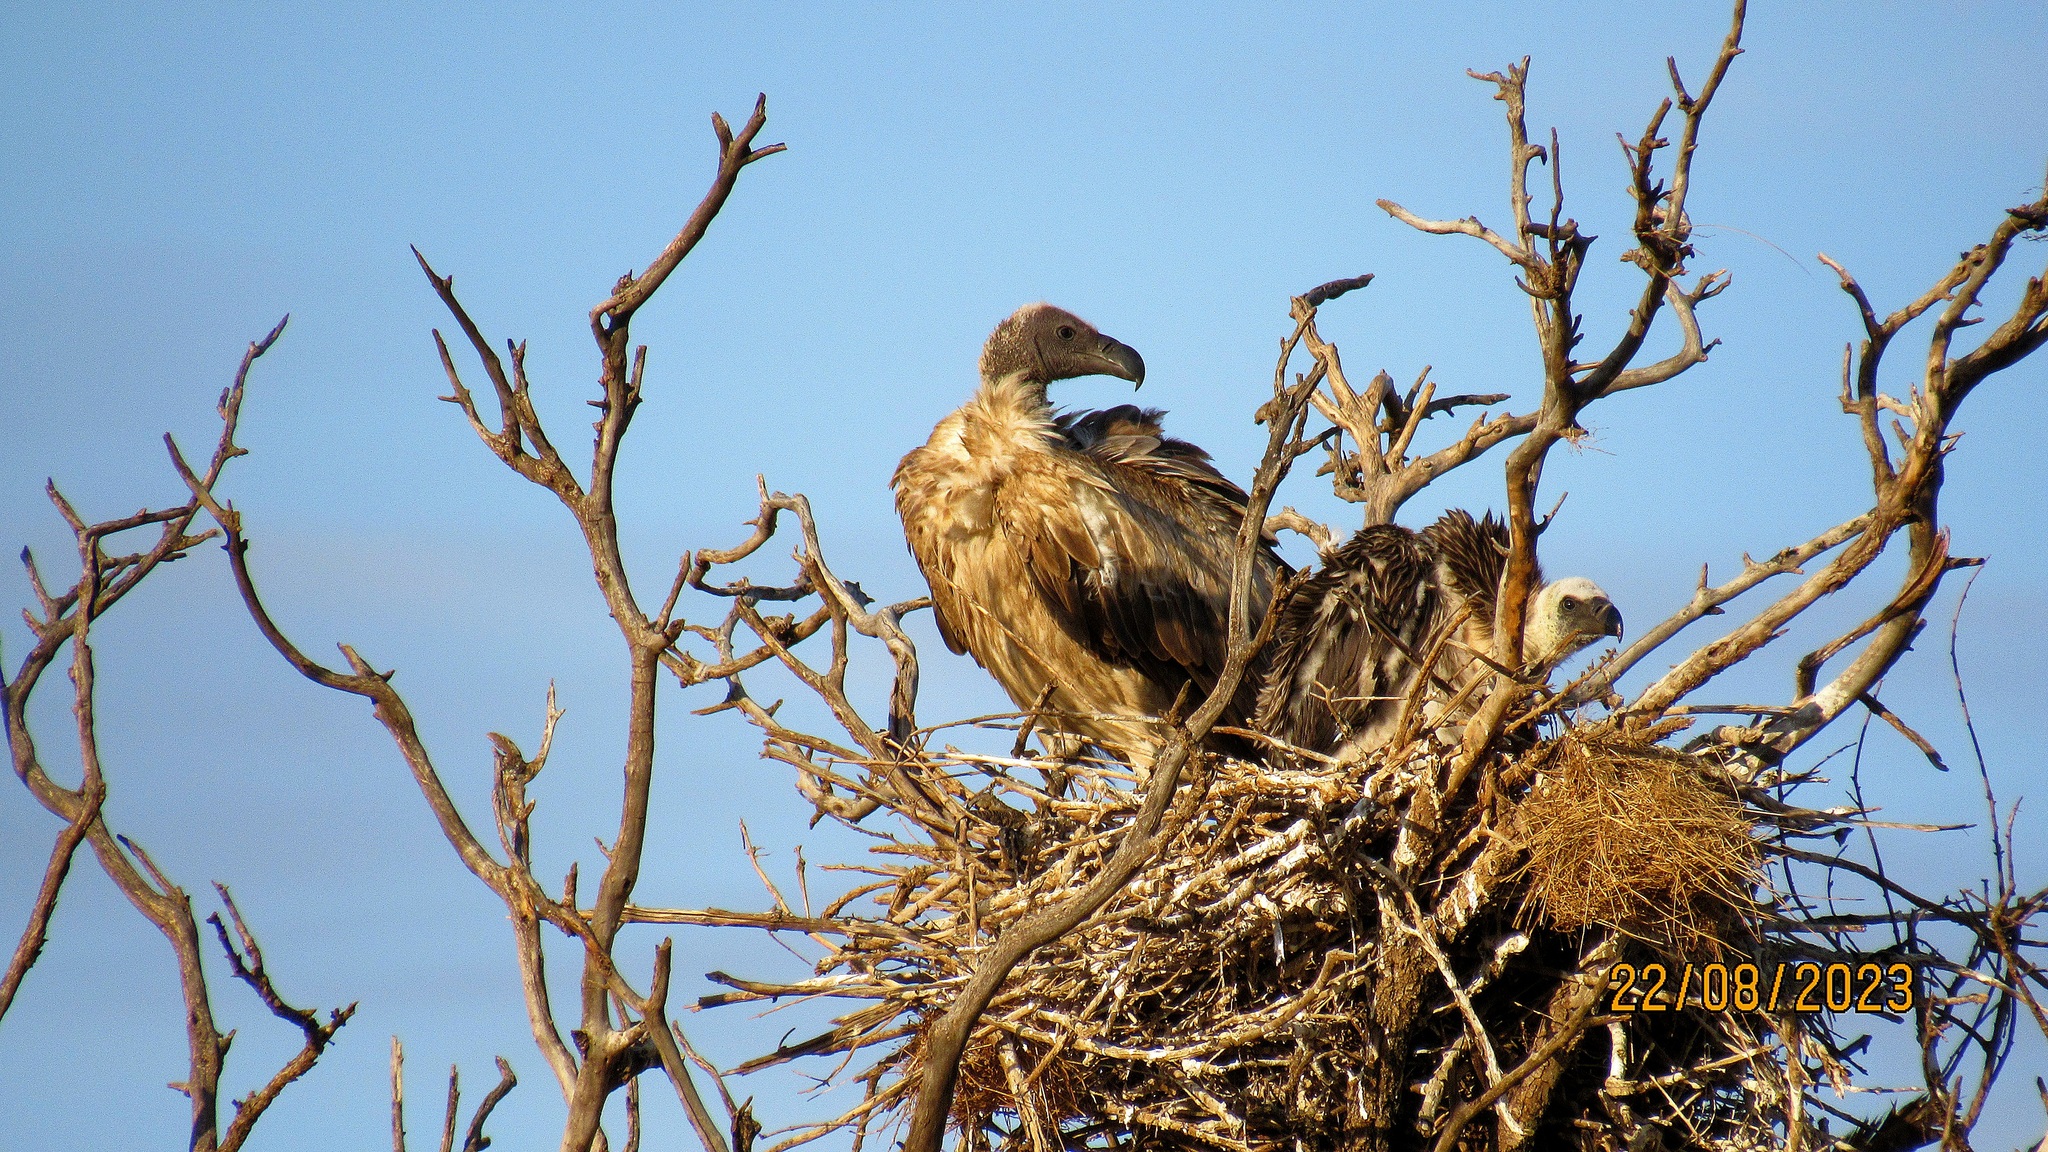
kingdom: Animalia
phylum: Chordata
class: Aves
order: Accipitriformes
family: Accipitridae
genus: Gyps
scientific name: Gyps africanus
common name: White-backed vulture
